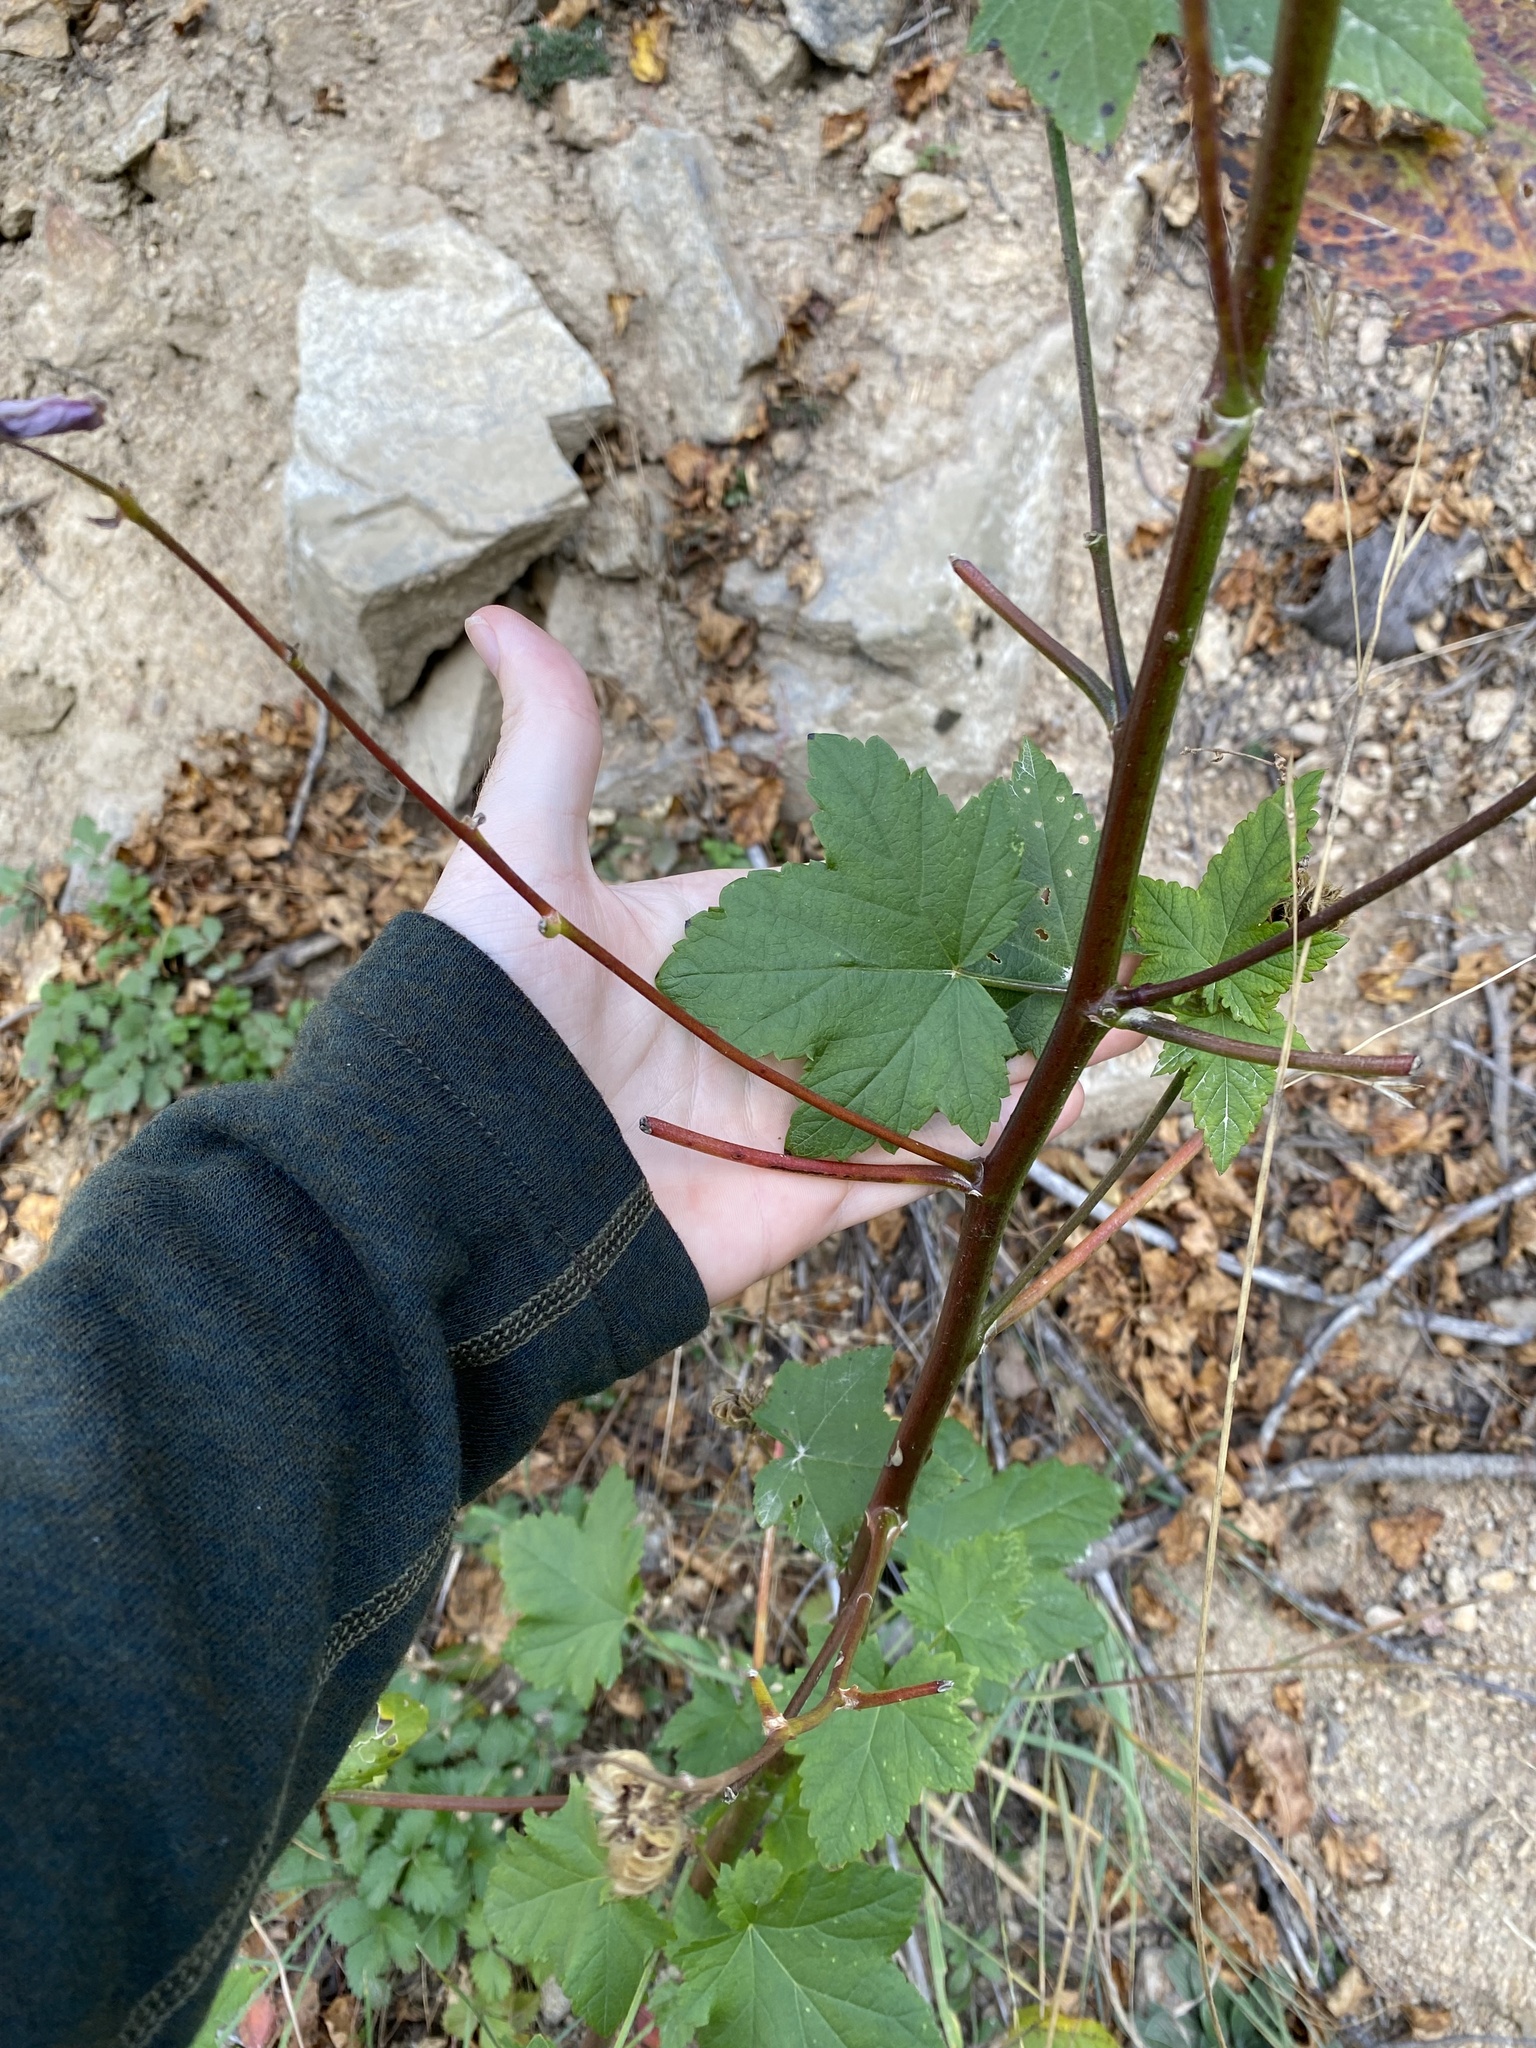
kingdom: Plantae
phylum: Tracheophyta
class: Magnoliopsida
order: Malvales
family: Malvaceae
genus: Iliamna
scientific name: Iliamna rivularis
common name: Wild hollyhock
